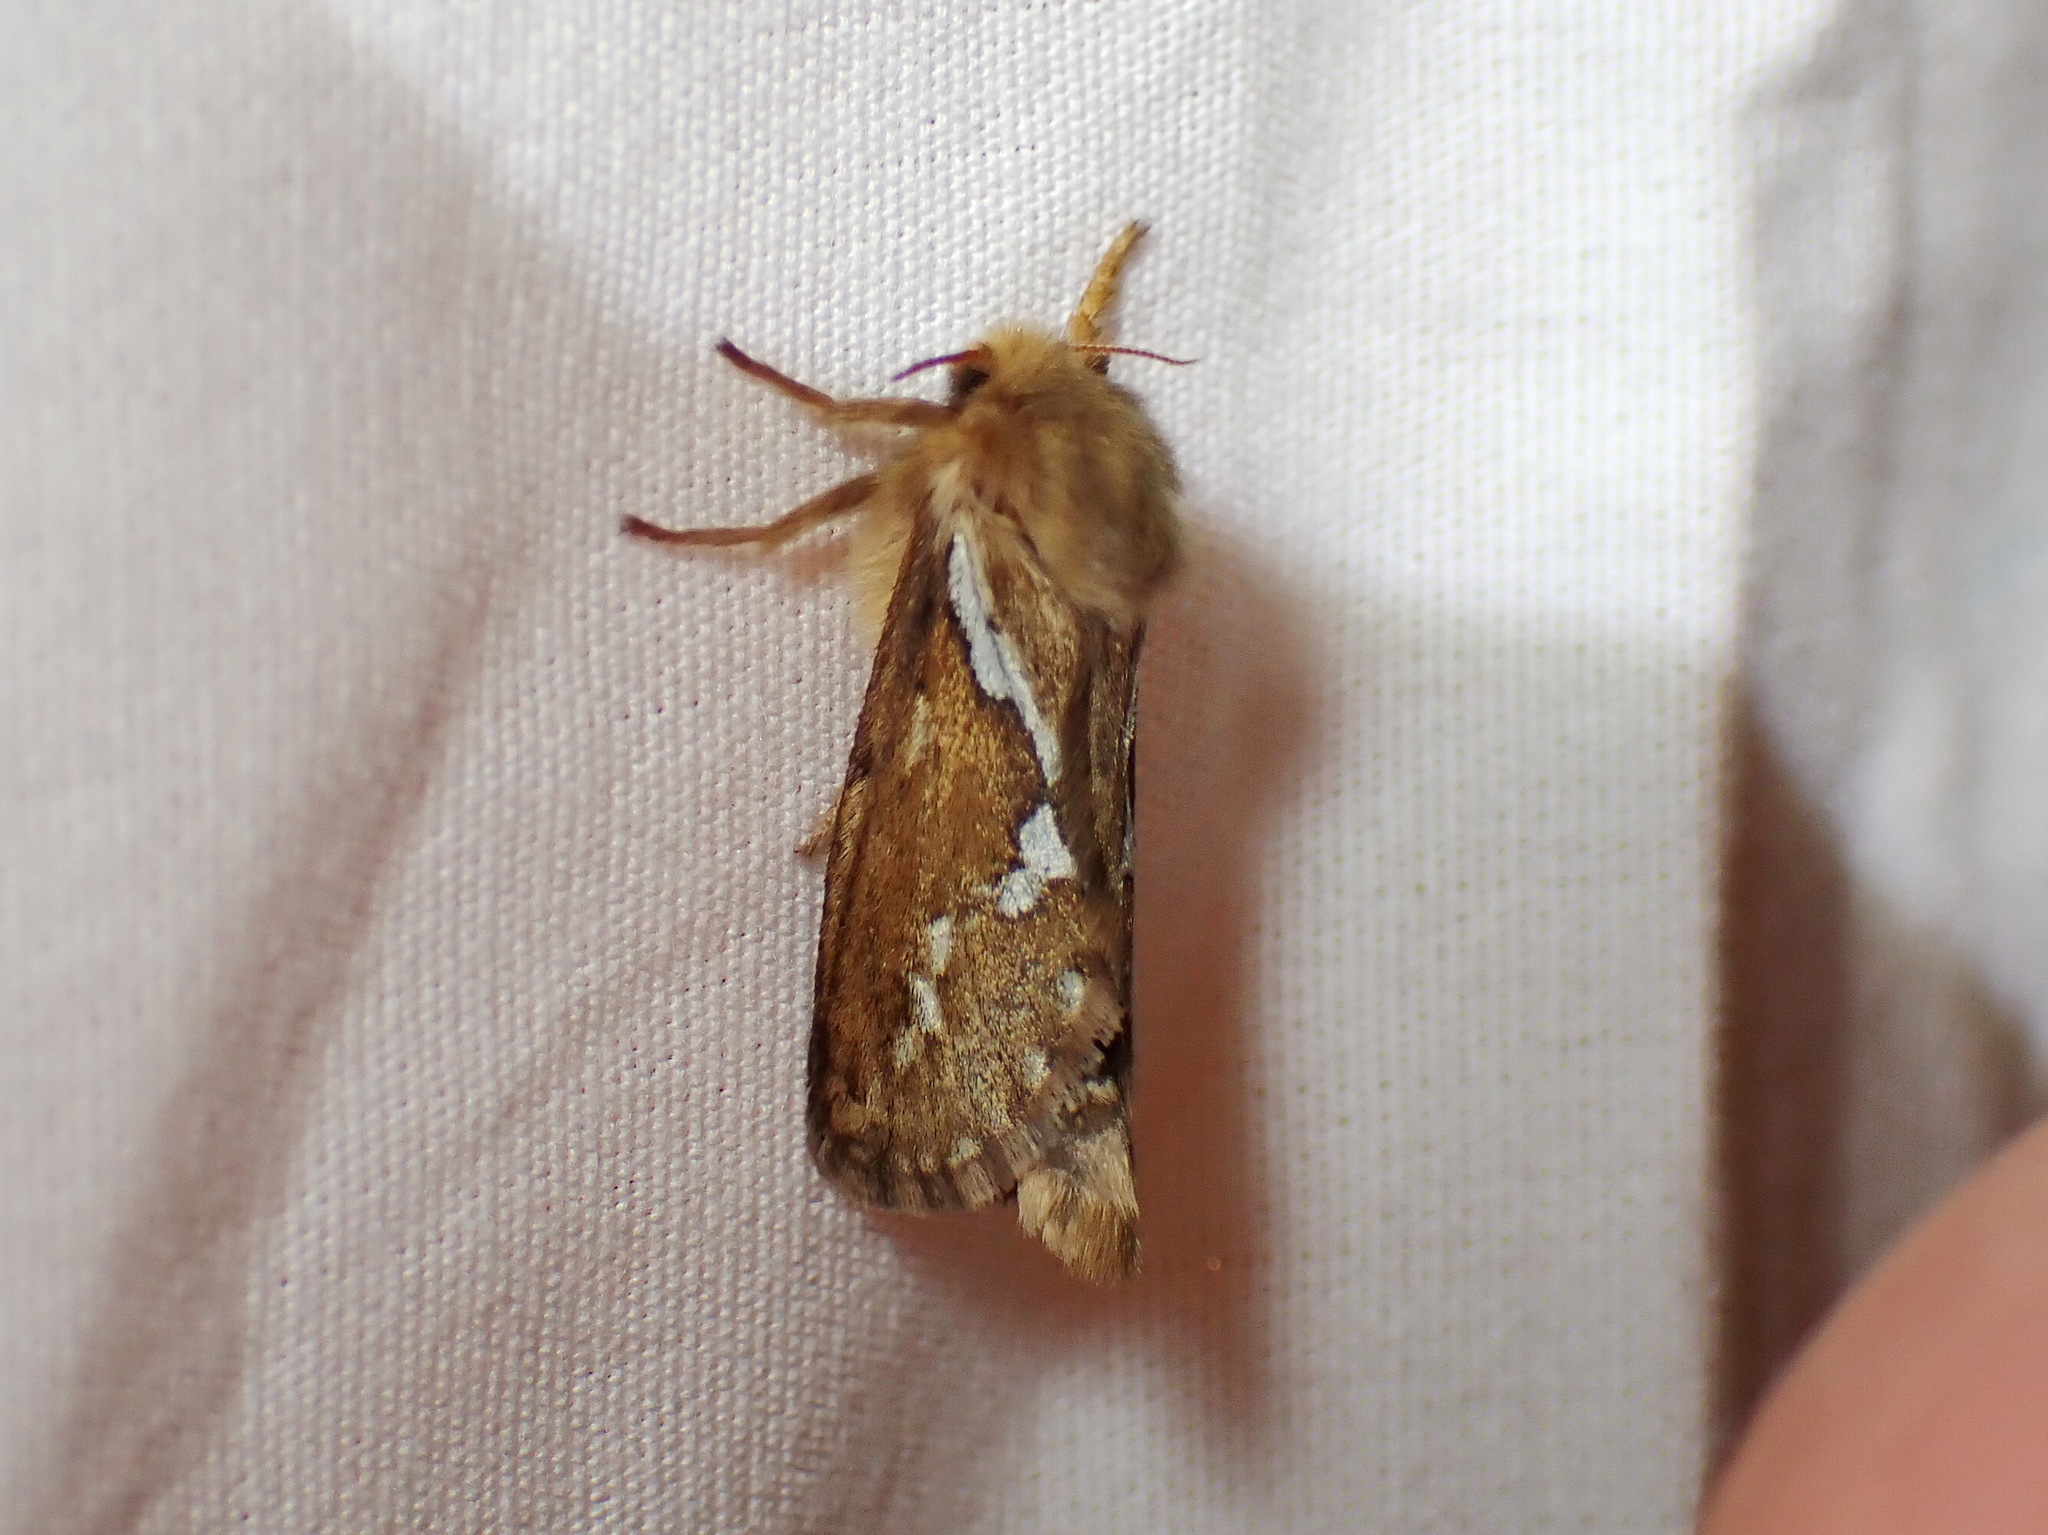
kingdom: Animalia
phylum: Arthropoda
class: Insecta
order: Lepidoptera
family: Hepialidae
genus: Korscheltellus
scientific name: Korscheltellus lupulina
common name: Common swift
